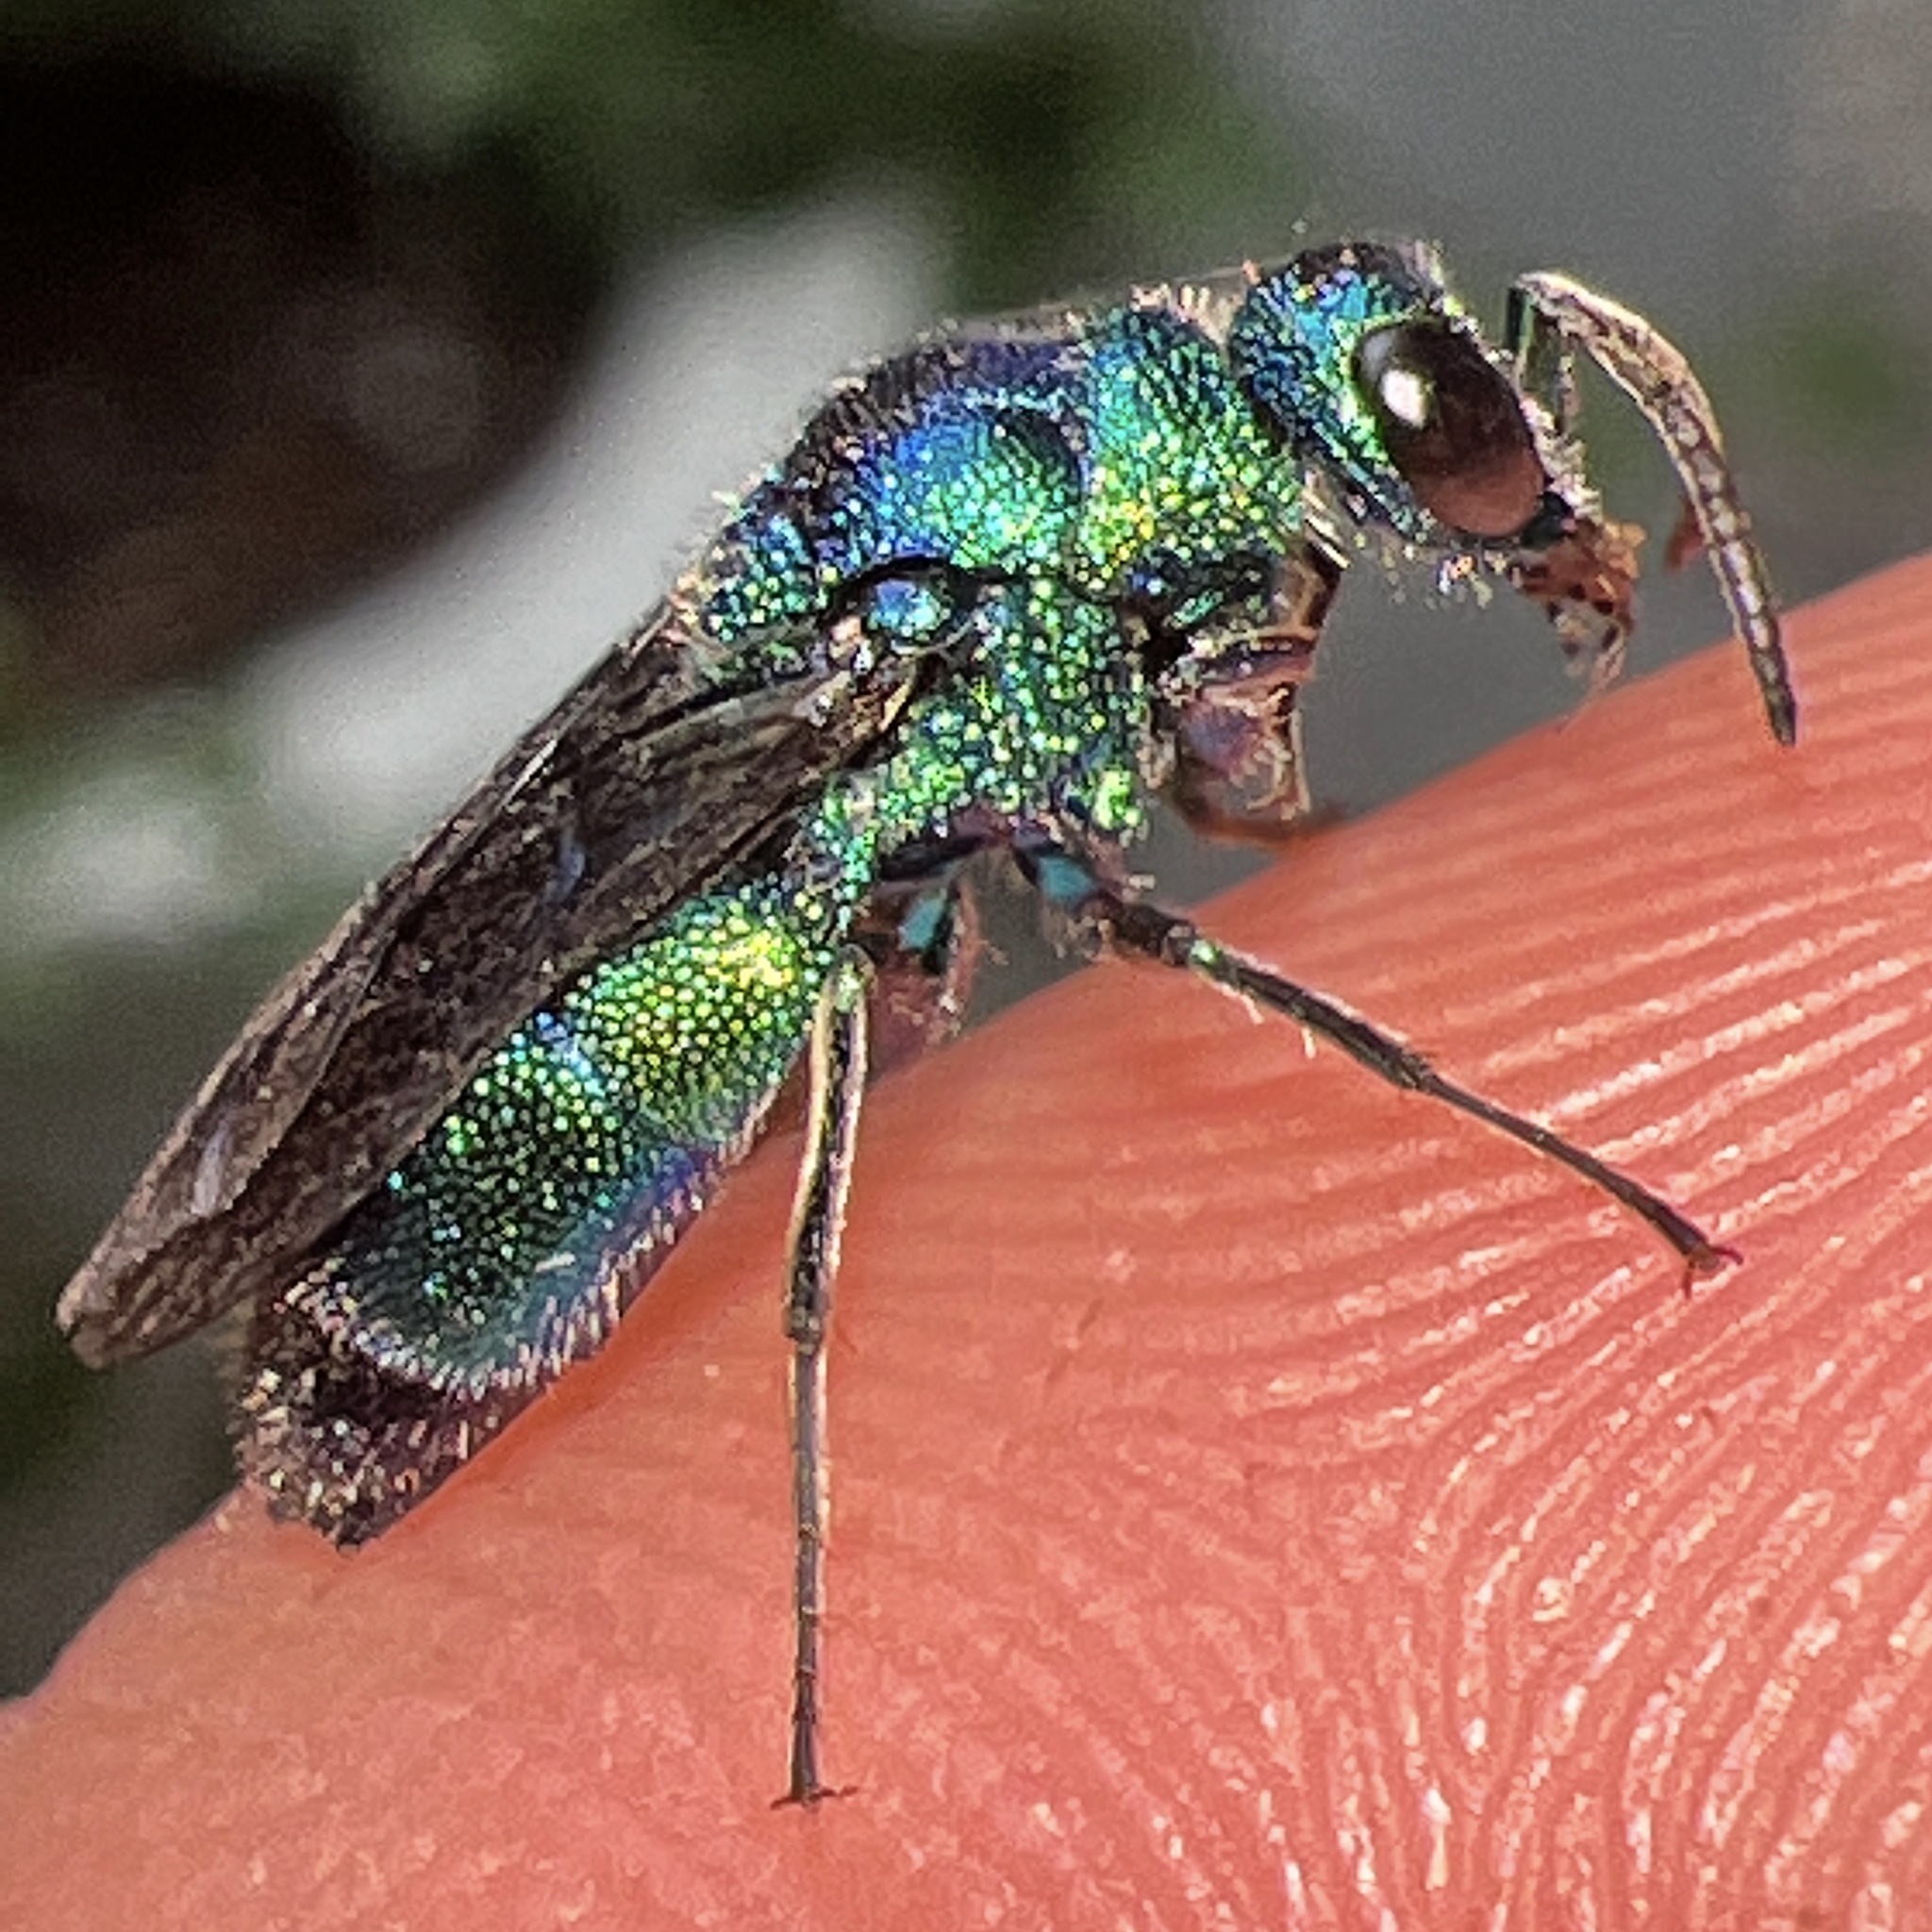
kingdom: Animalia
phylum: Arthropoda
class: Insecta
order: Hymenoptera
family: Chrysididae
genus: Chrysis
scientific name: Chrysis angolensis
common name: Cuckoo wasp
